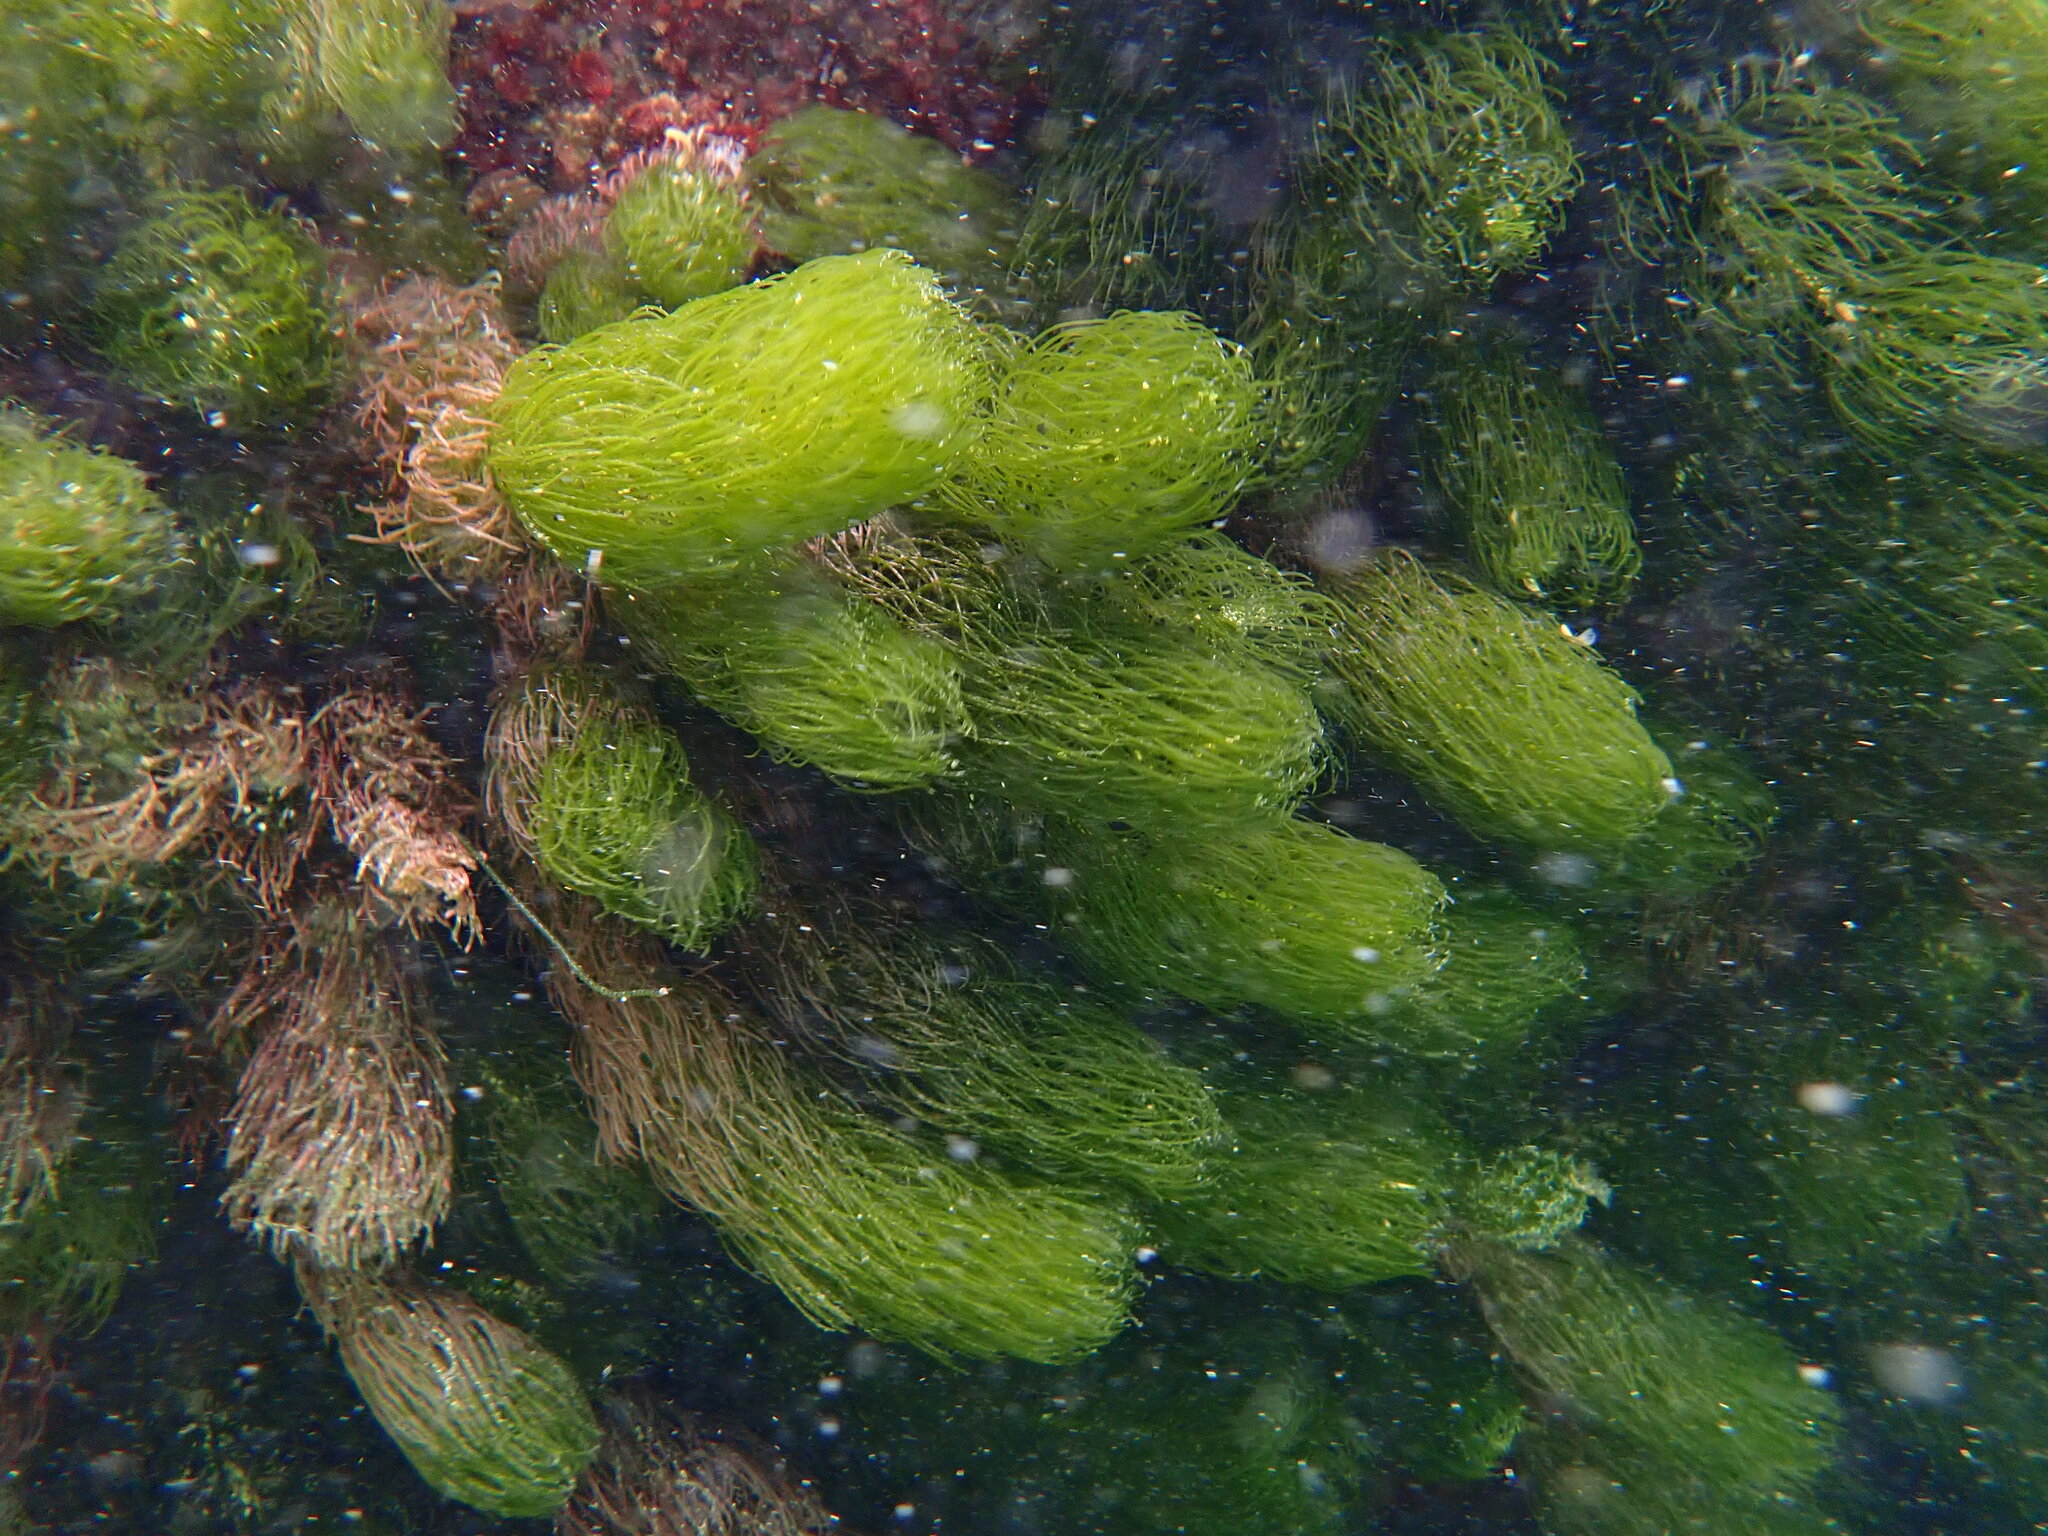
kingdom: Plantae
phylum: Chlorophyta
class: Ulvophyceae
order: Bryopsidales
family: Caulerpaceae
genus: Caulerpa
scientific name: Caulerpa
